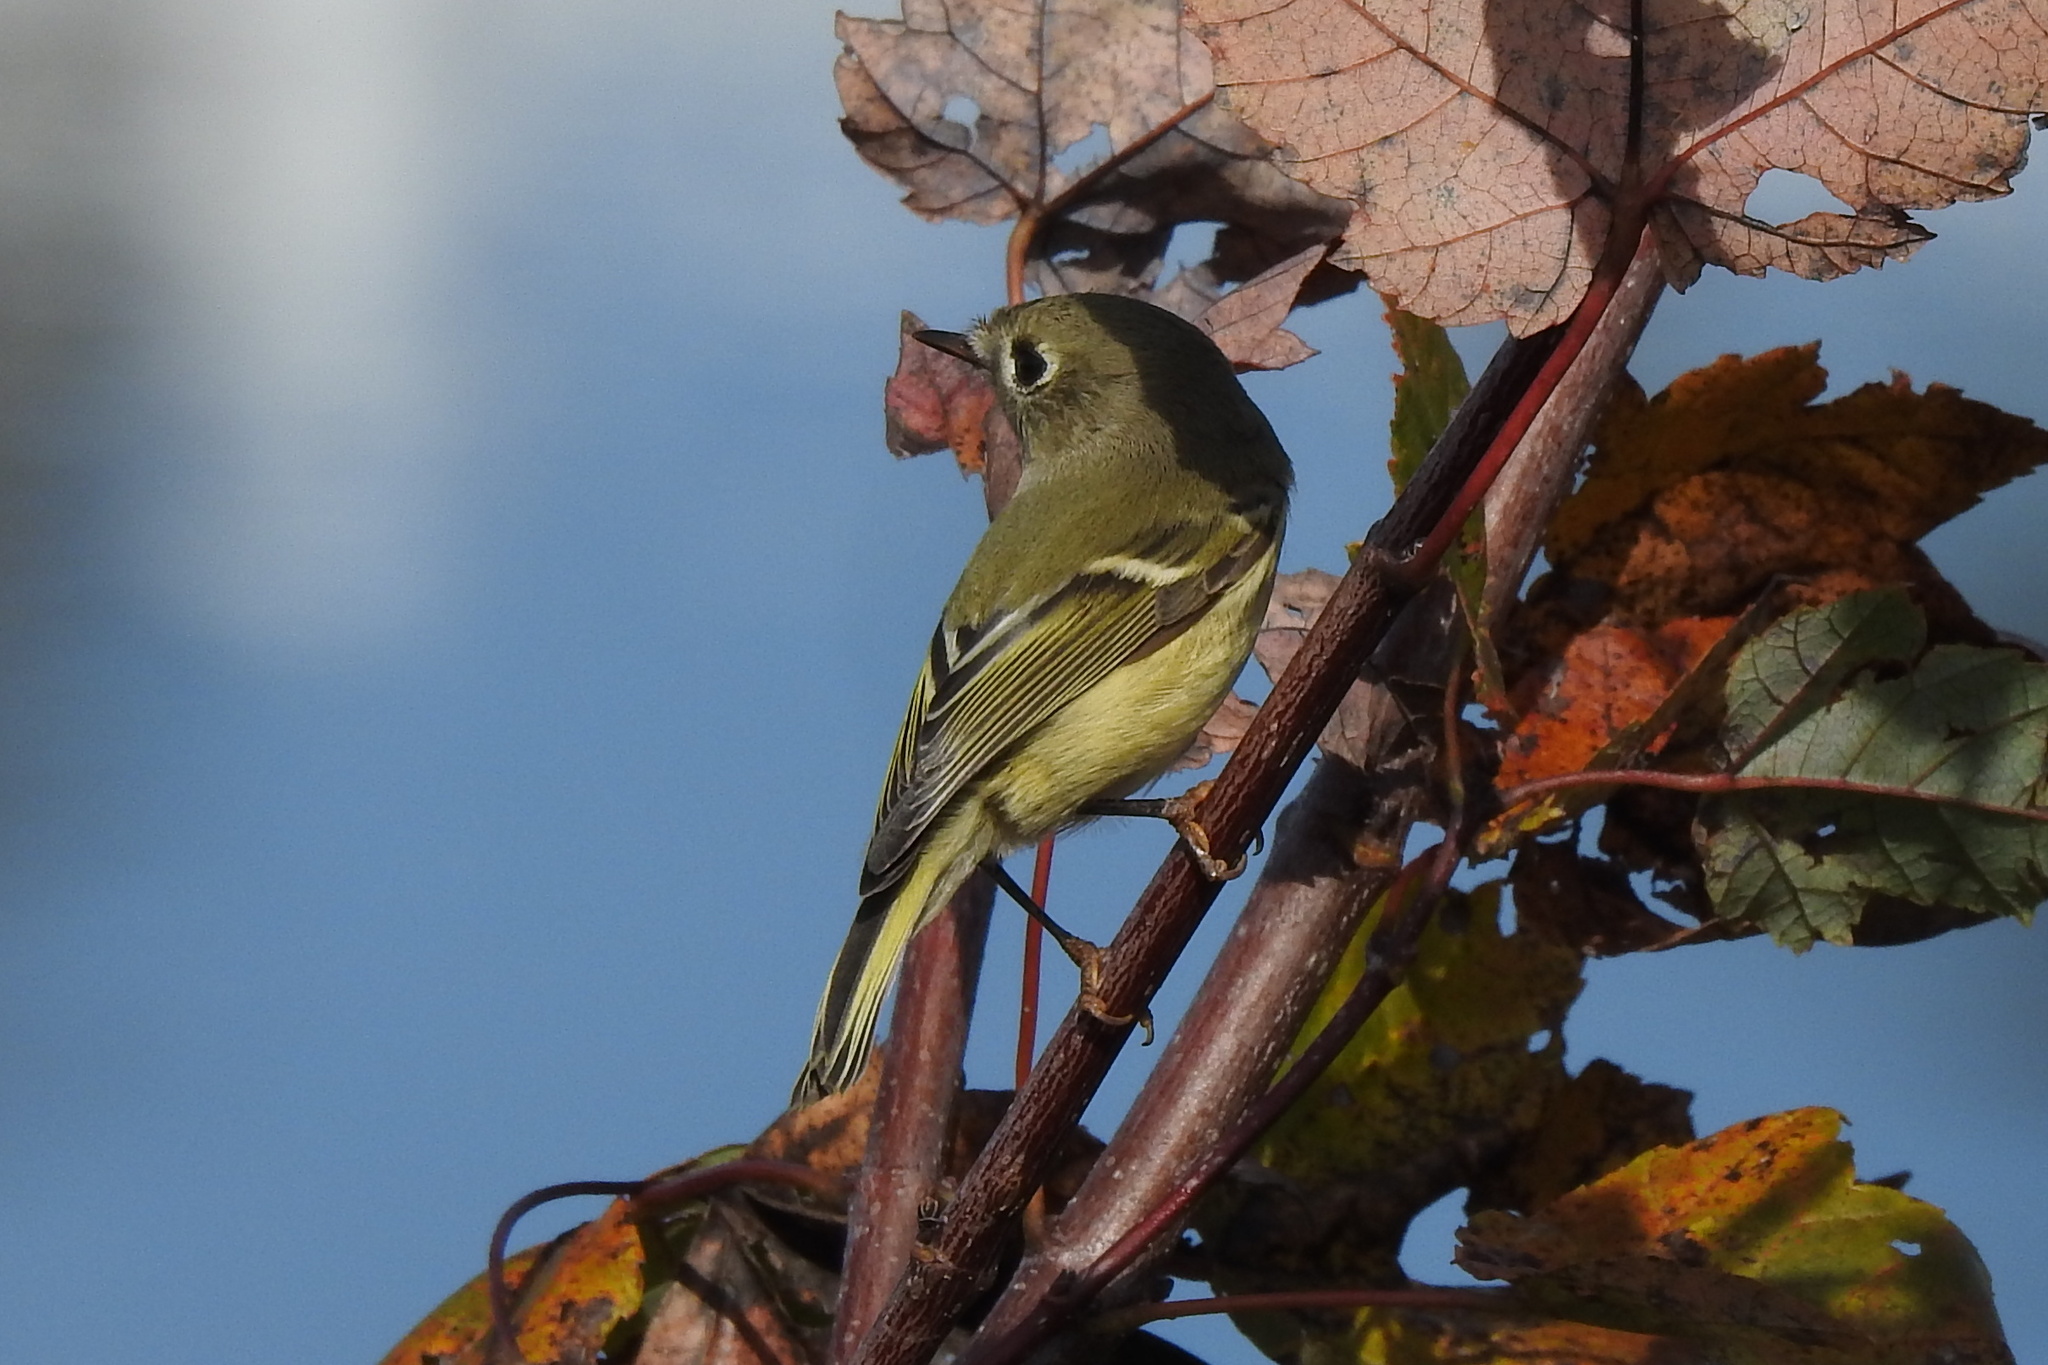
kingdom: Animalia
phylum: Chordata
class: Aves
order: Passeriformes
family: Regulidae
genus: Regulus
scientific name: Regulus calendula
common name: Ruby-crowned kinglet
